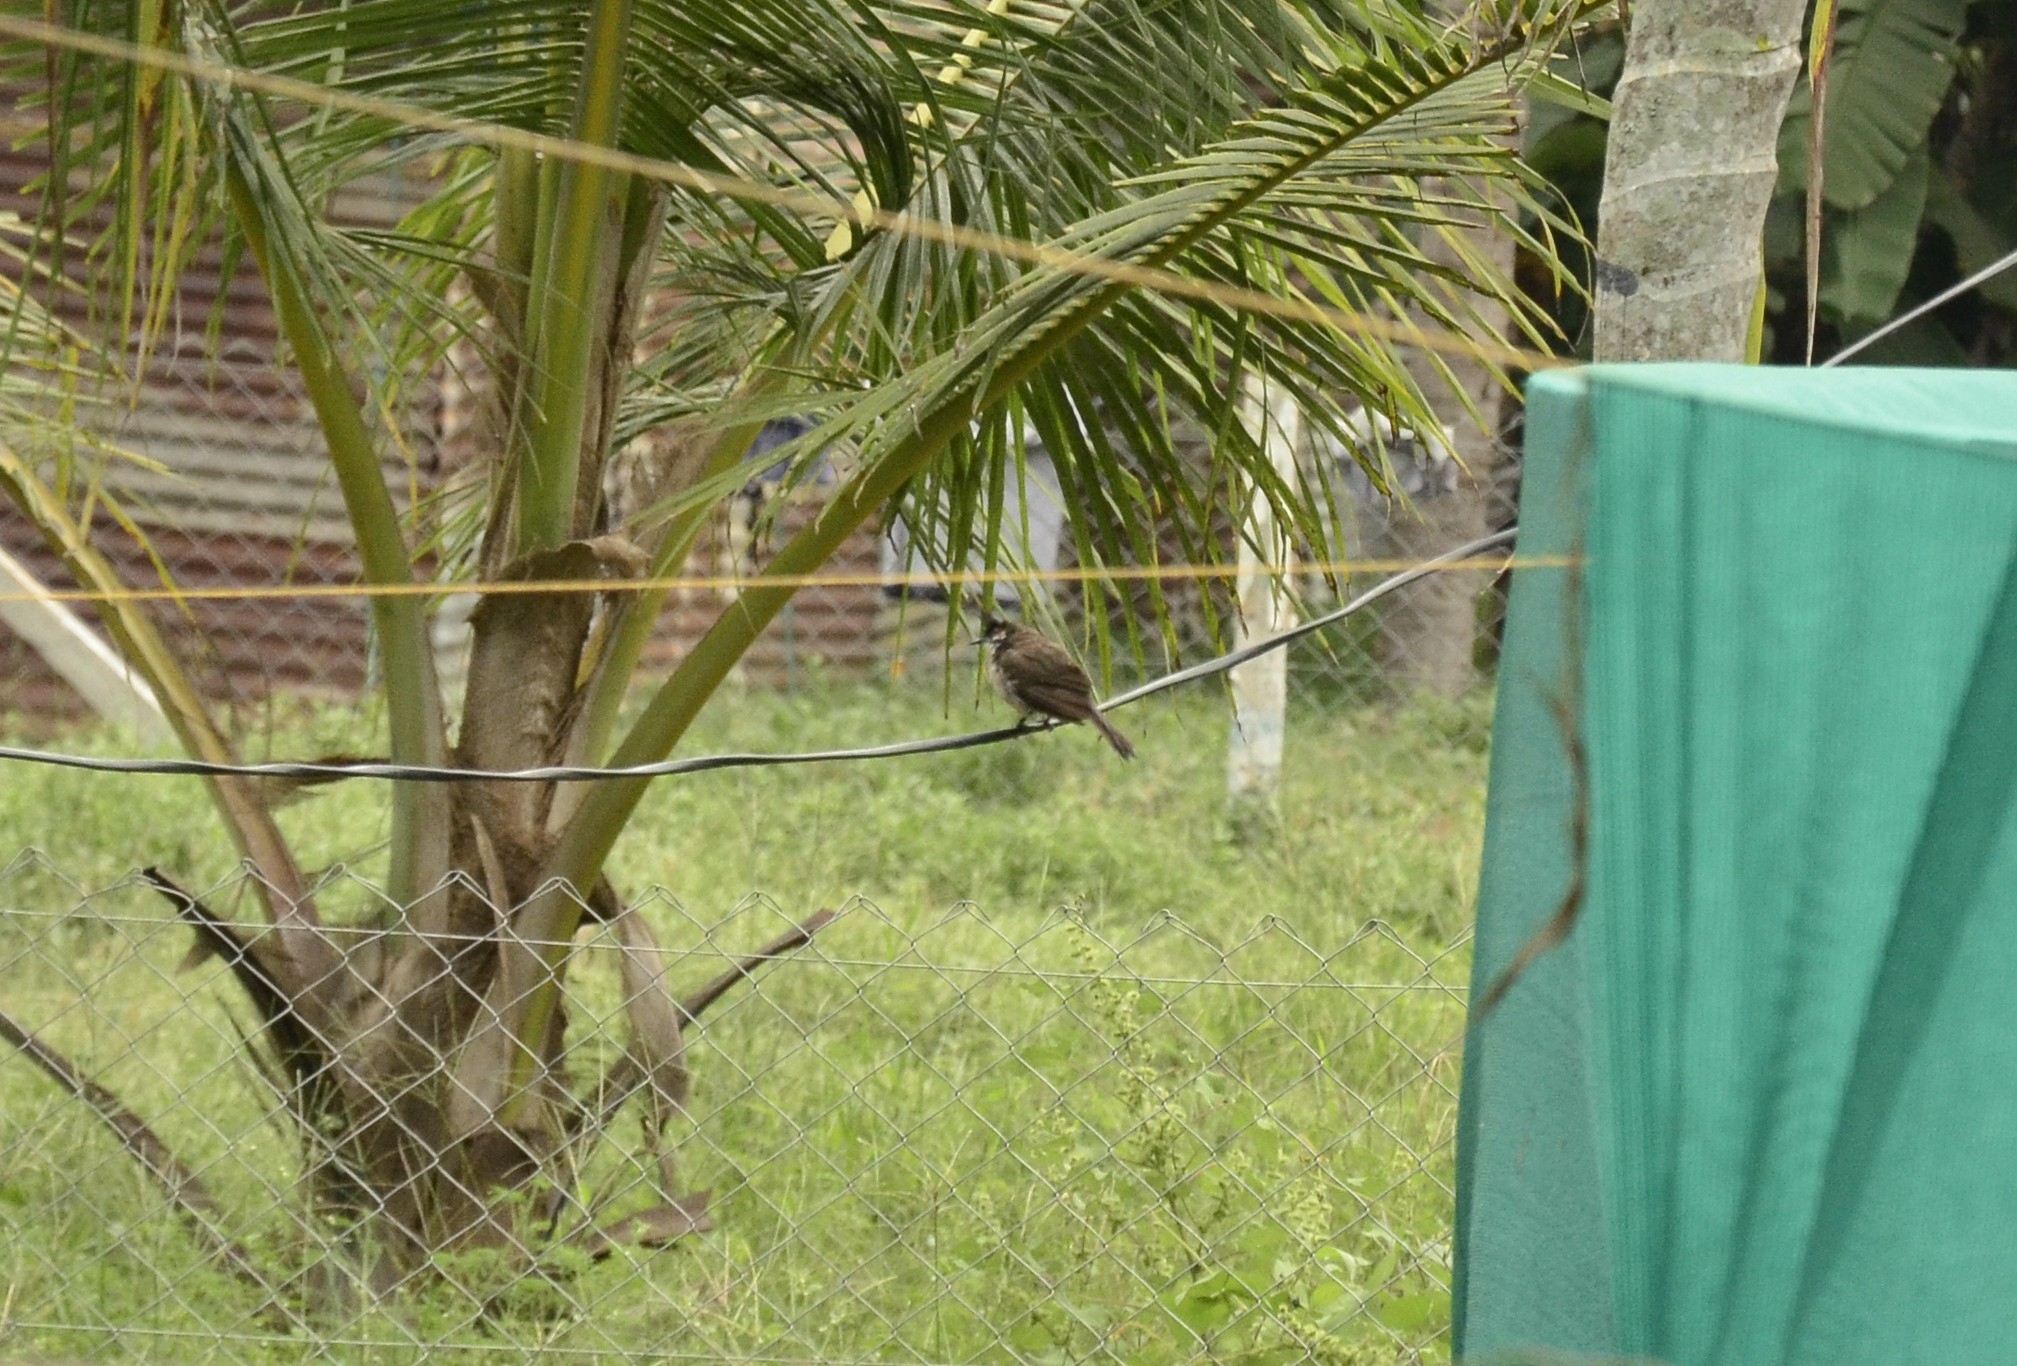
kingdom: Animalia
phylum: Chordata
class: Aves
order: Passeriformes
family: Pycnonotidae
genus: Pycnonotus
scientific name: Pycnonotus jocosus
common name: Red-whiskered bulbul
